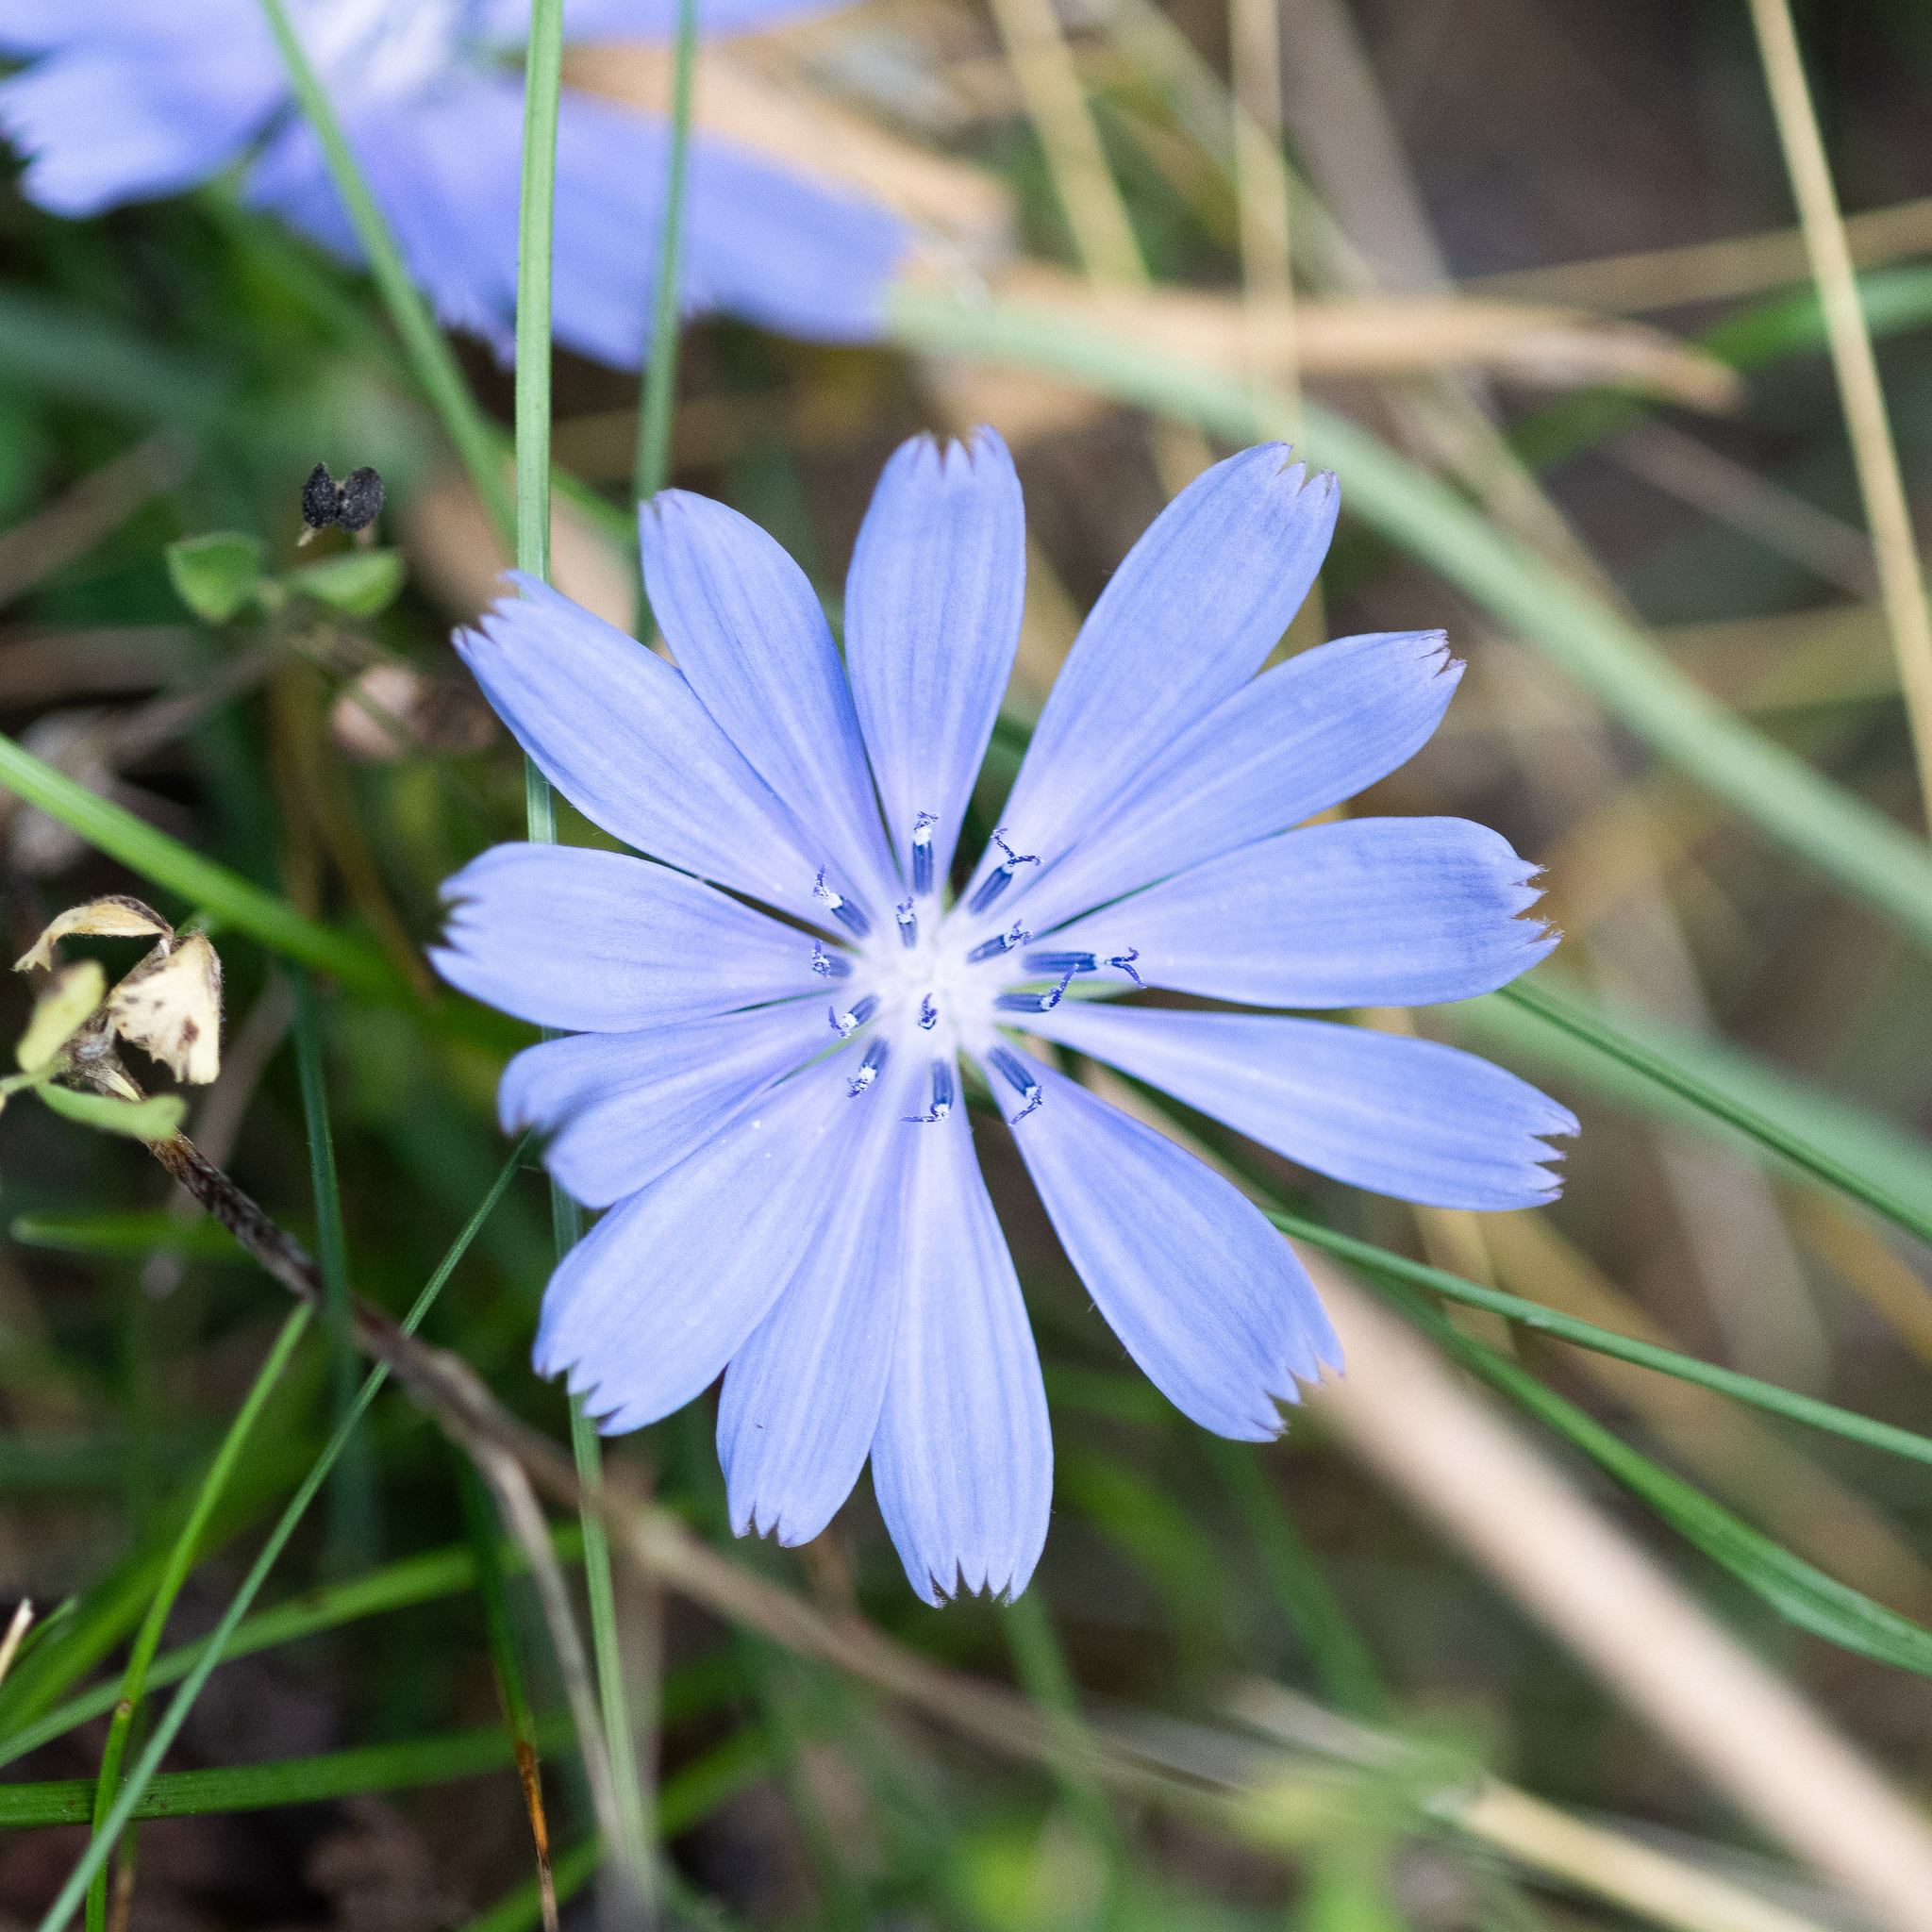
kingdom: Plantae
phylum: Tracheophyta
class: Magnoliopsida
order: Asterales
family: Asteraceae
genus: Cichorium
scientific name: Cichorium intybus
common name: Chicory
